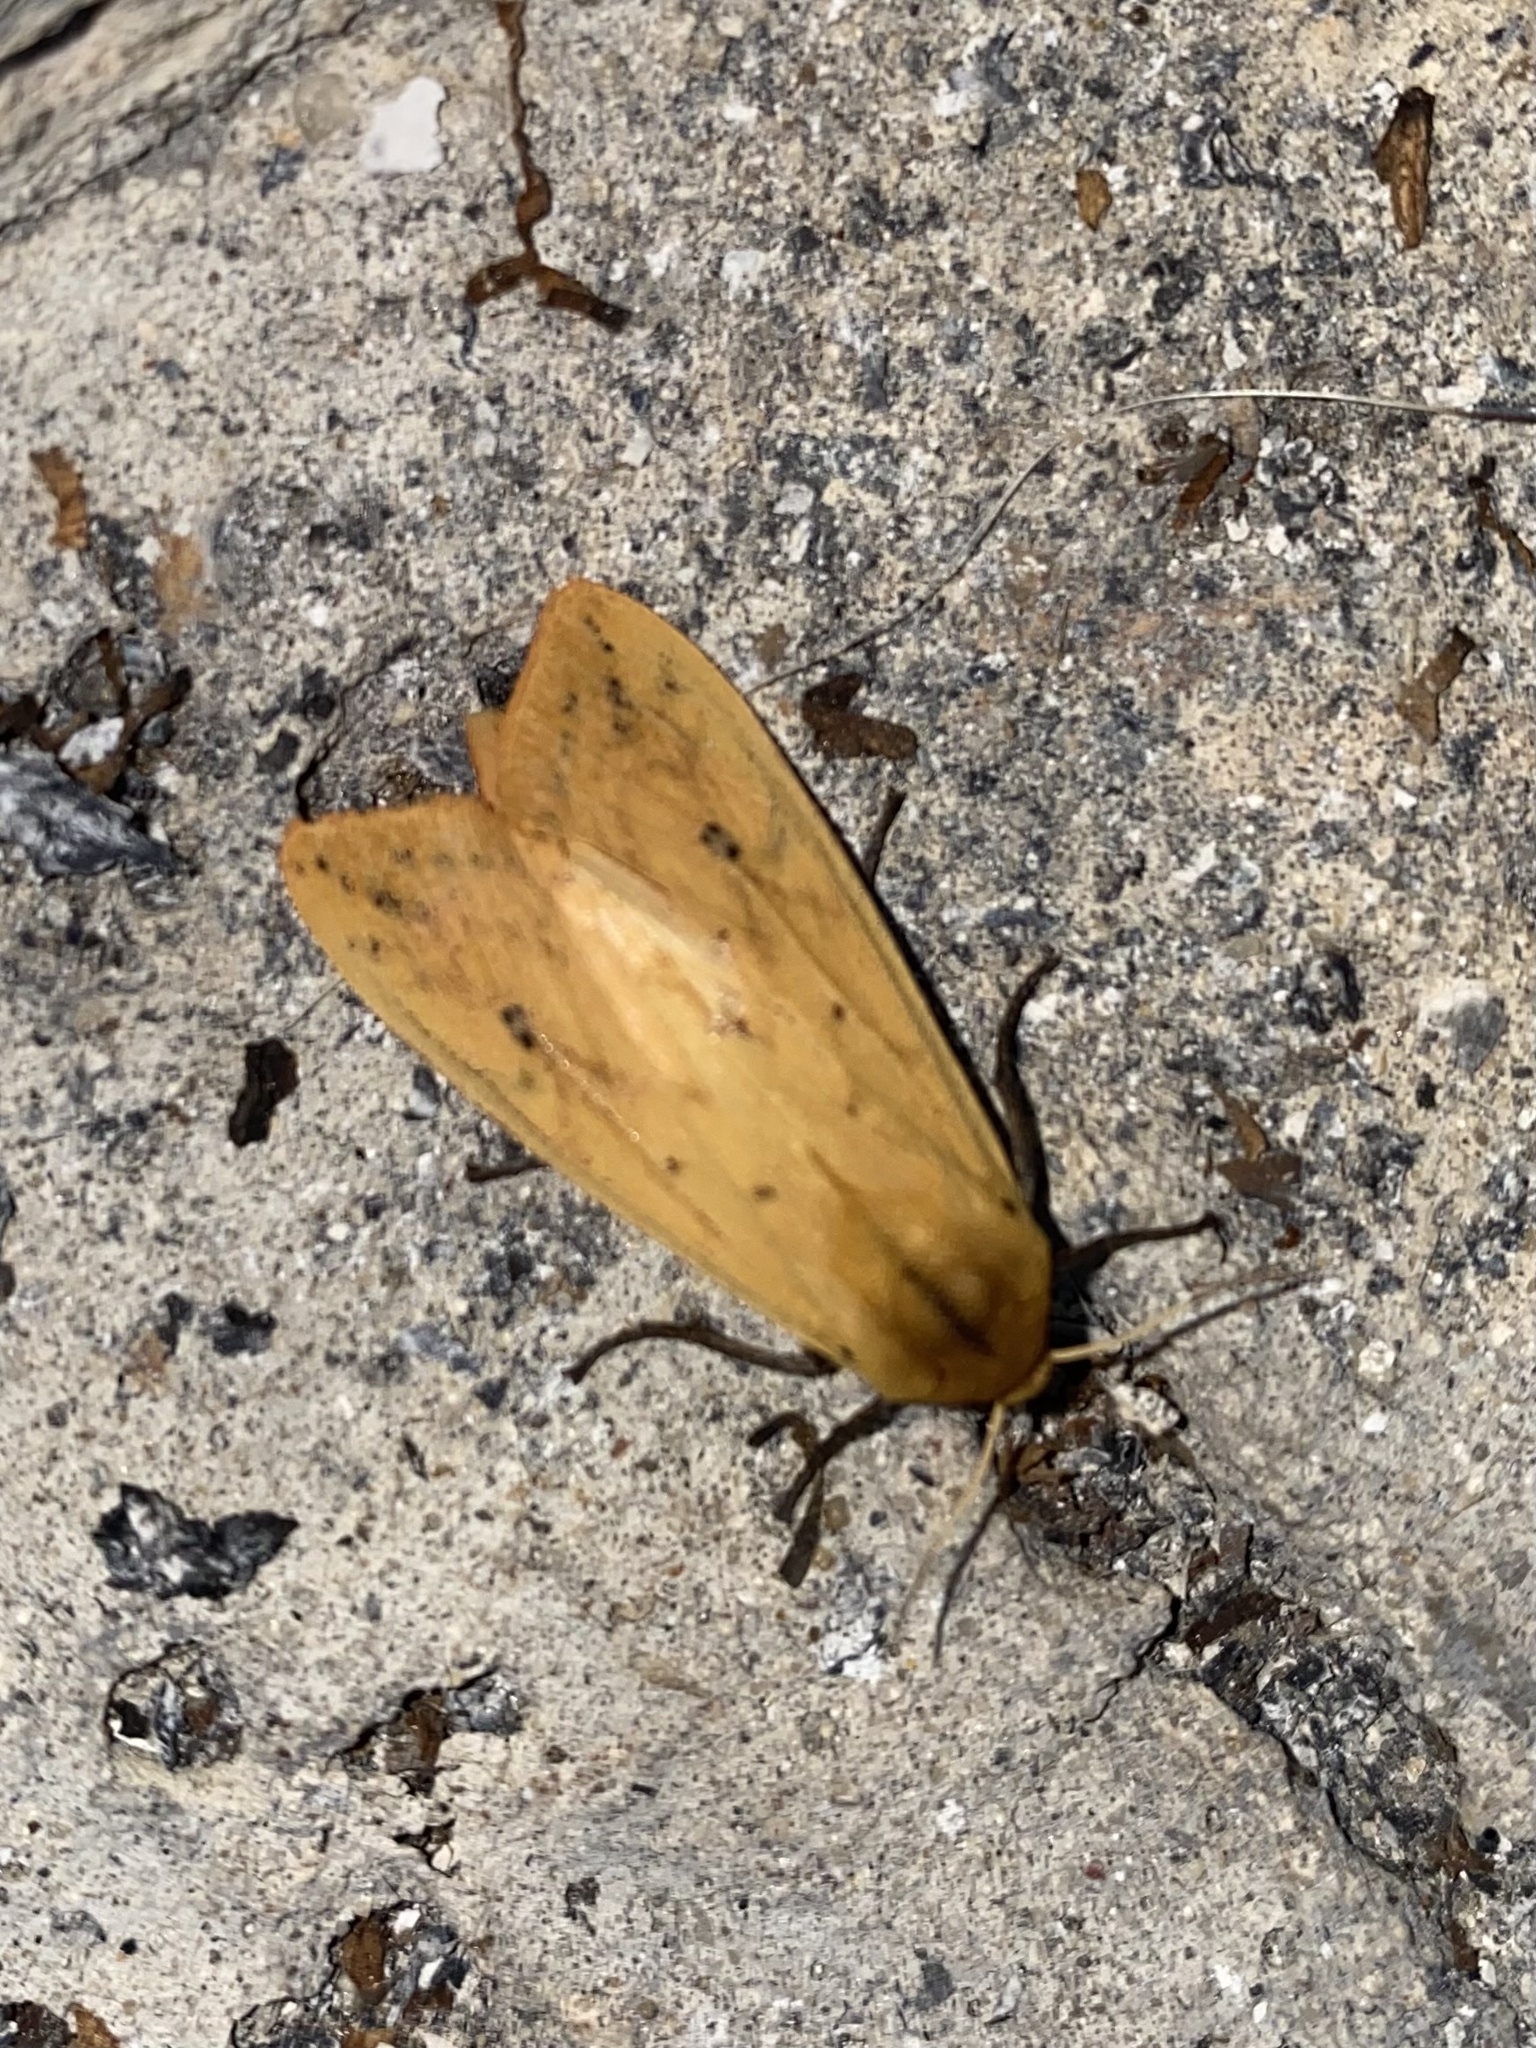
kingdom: Animalia
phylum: Arthropoda
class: Insecta
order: Lepidoptera
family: Erebidae
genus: Pyrrharctia
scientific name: Pyrrharctia isabella
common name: Isabella tiger moth
